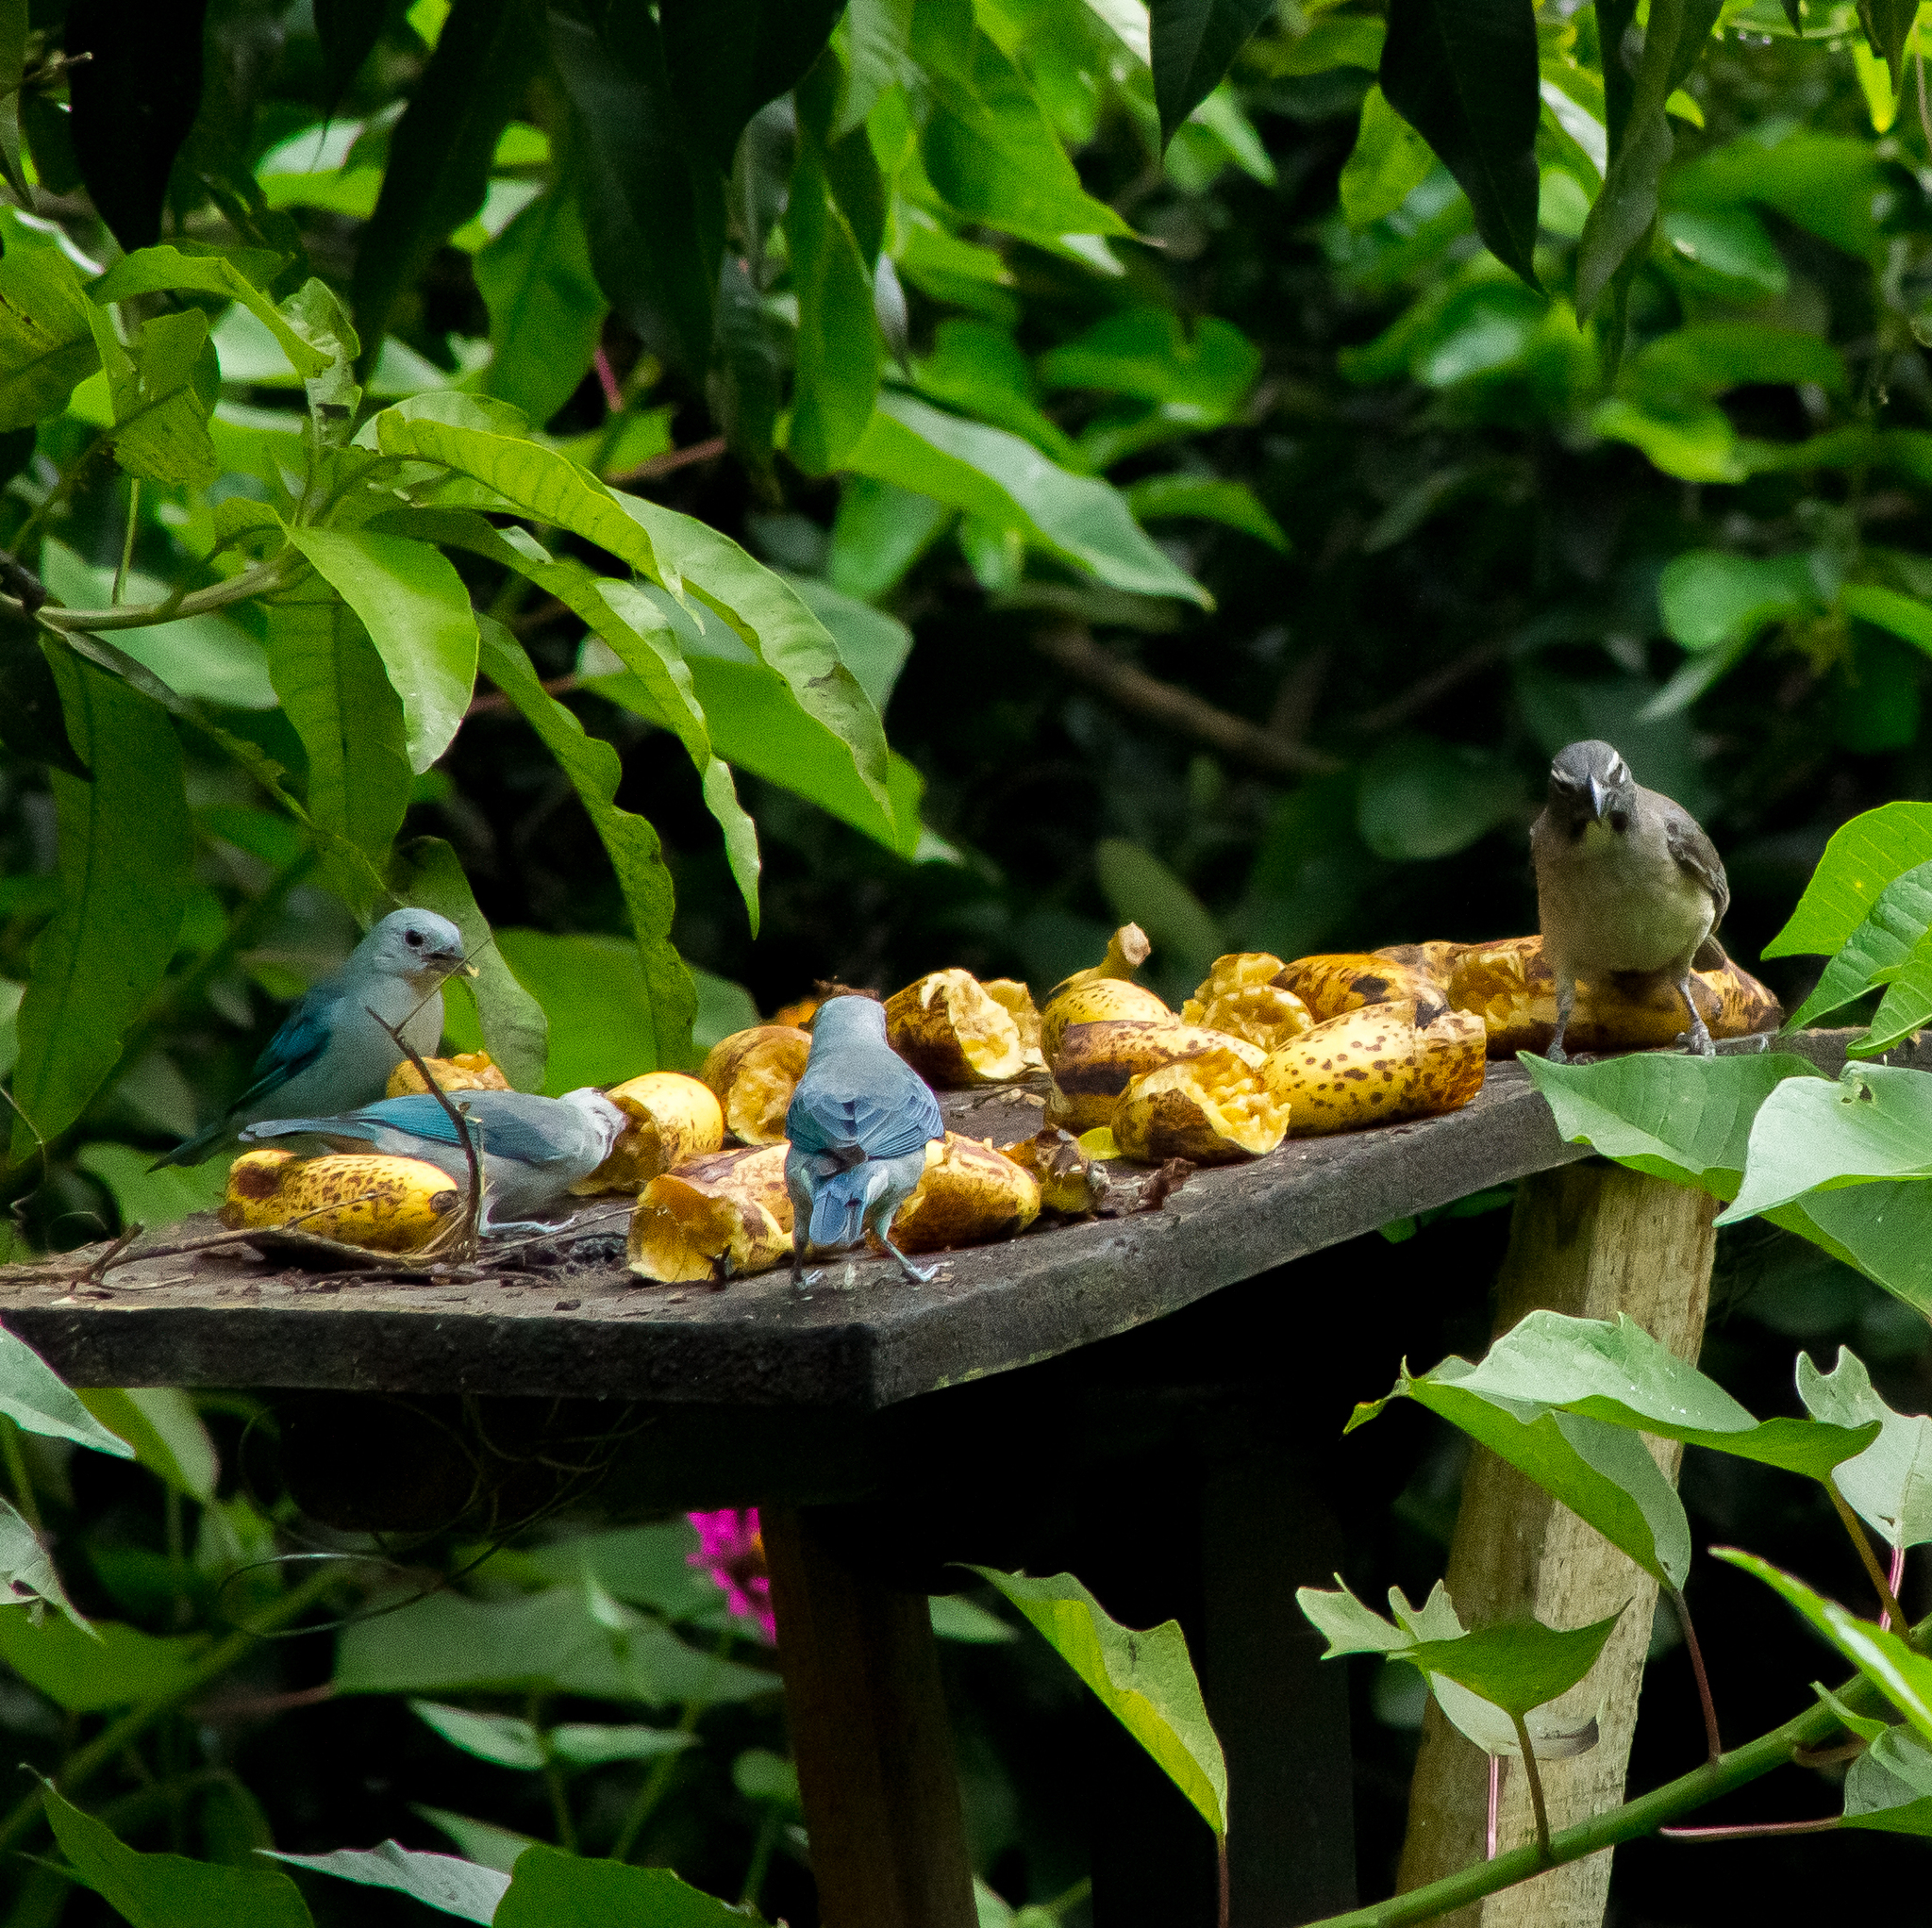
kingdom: Animalia
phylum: Chordata
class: Aves
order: Passeriformes
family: Thraupidae
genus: Saltator
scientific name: Saltator olivascens
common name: Caribbean grey saltator
